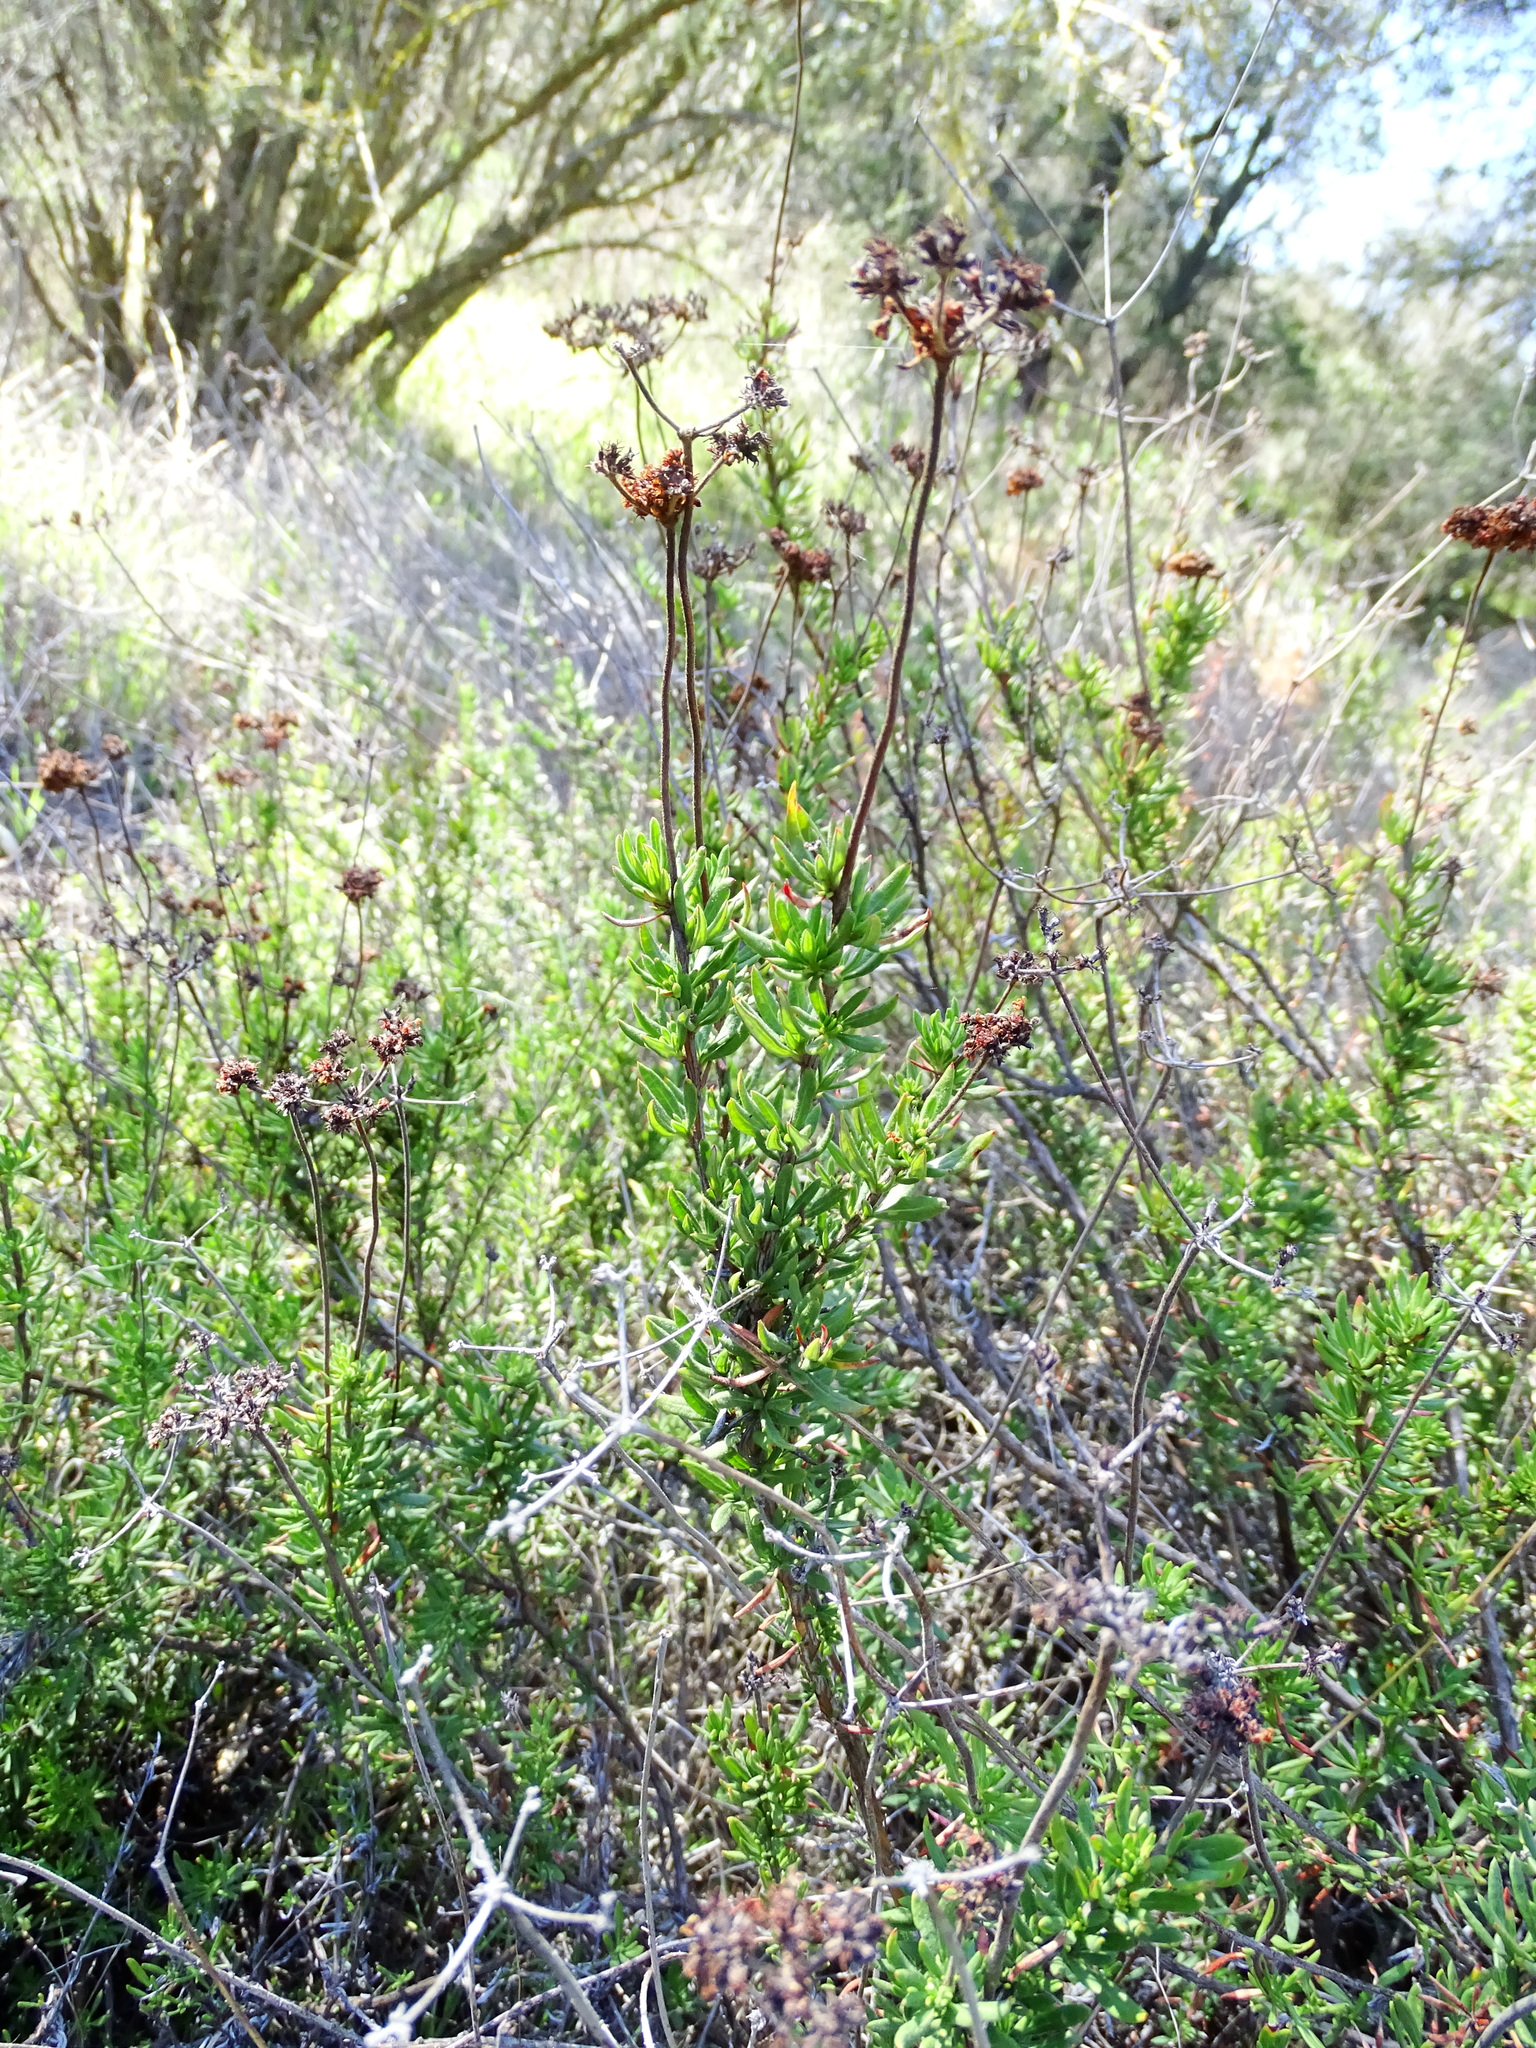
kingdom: Plantae
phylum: Tracheophyta
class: Magnoliopsida
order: Caryophyllales
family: Polygonaceae
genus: Eriogonum
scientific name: Eriogonum fasciculatum
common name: California wild buckwheat
